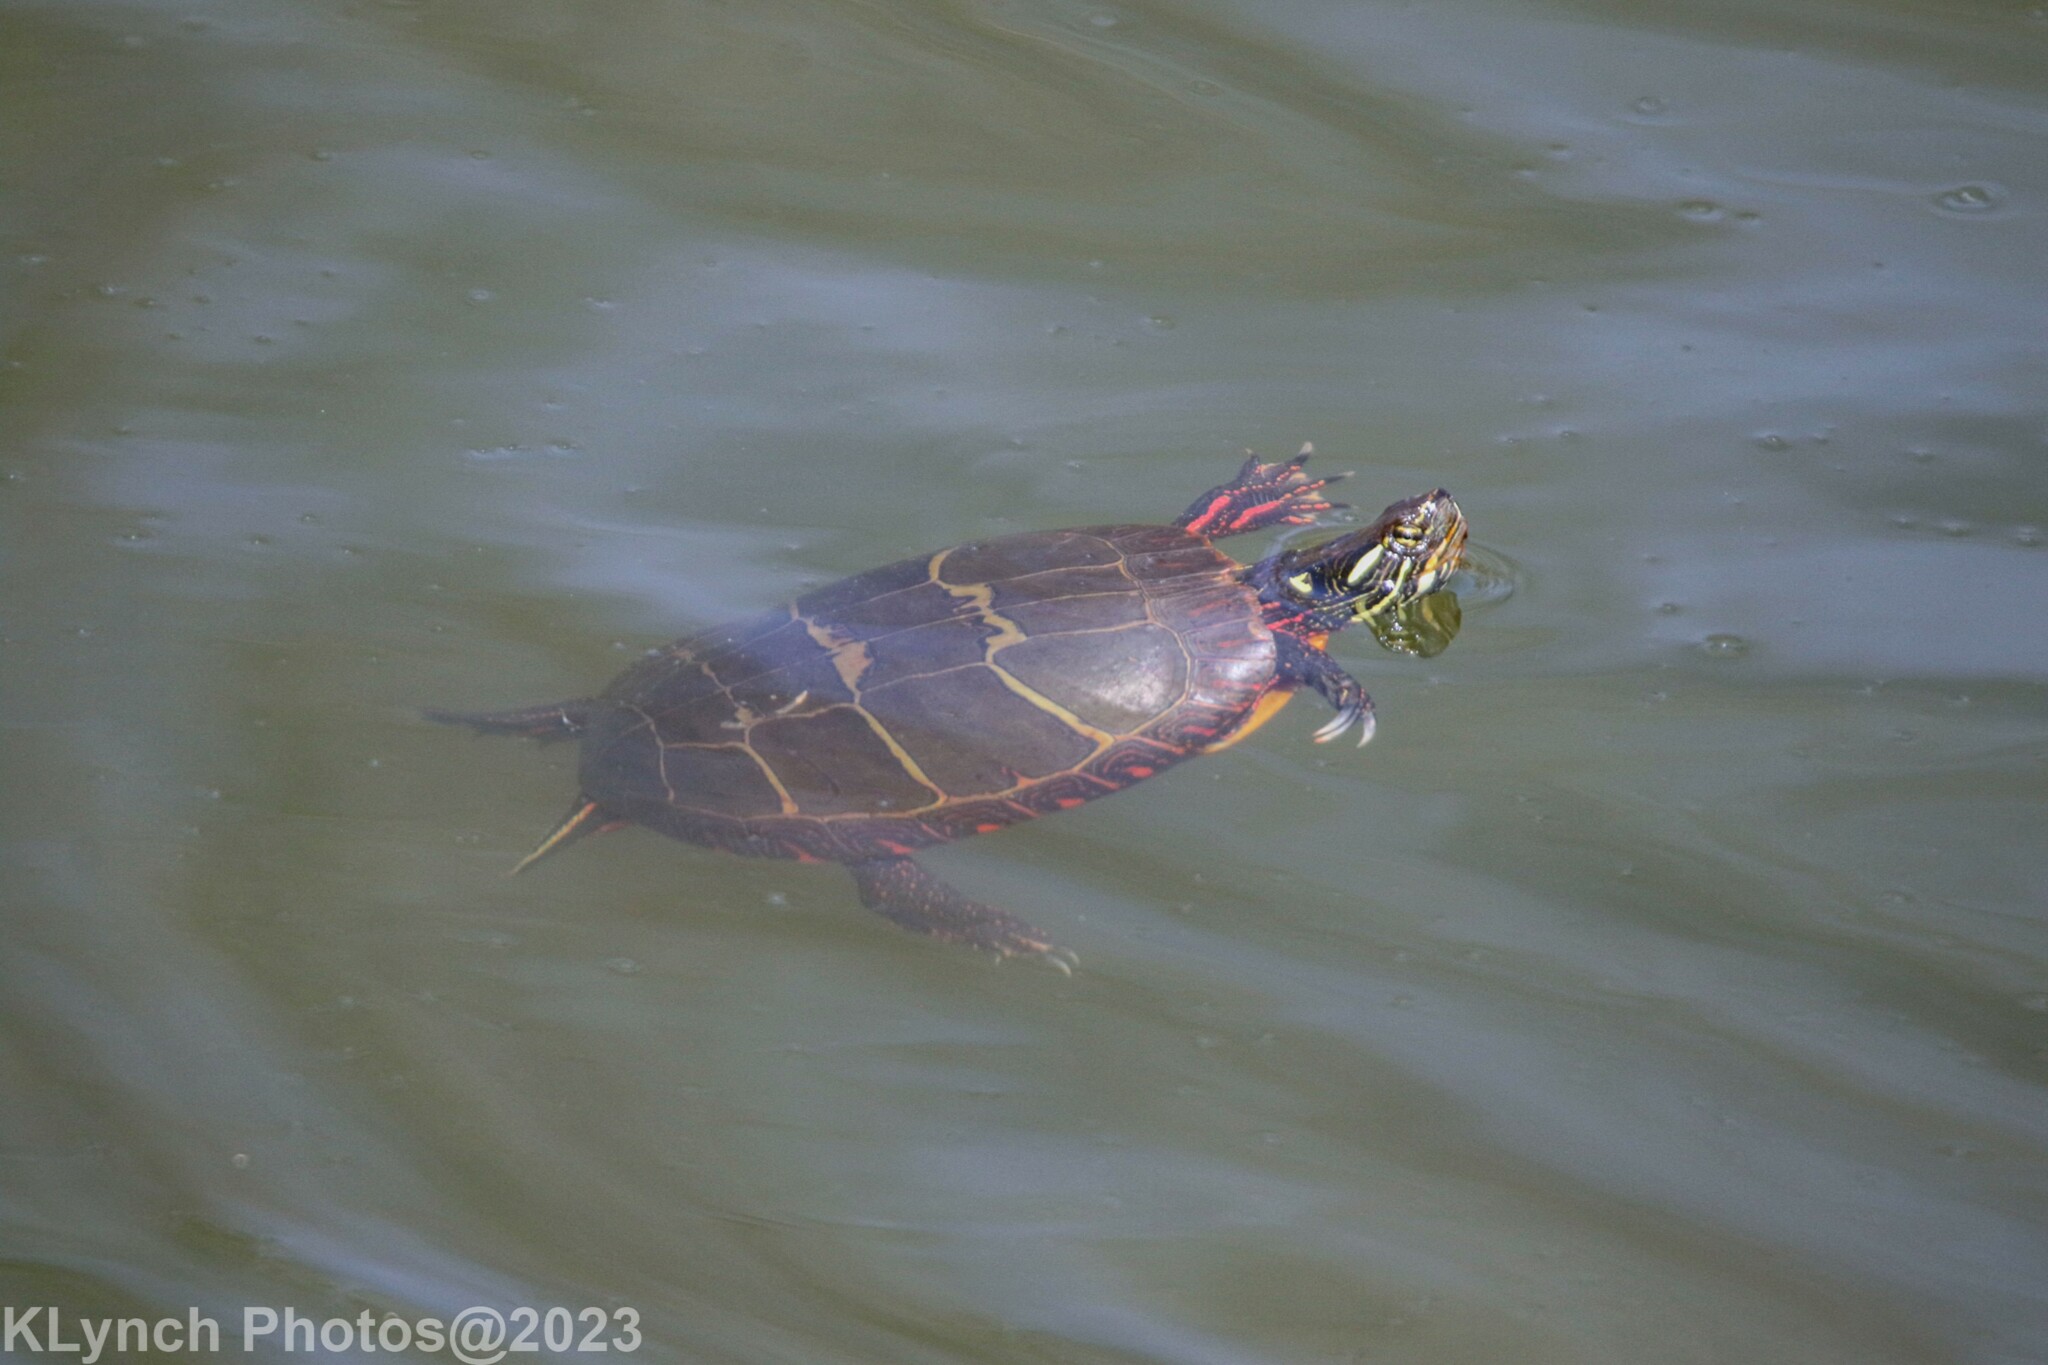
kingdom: Animalia
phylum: Chordata
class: Testudines
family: Emydidae
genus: Chrysemys
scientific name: Chrysemys picta
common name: Painted turtle
